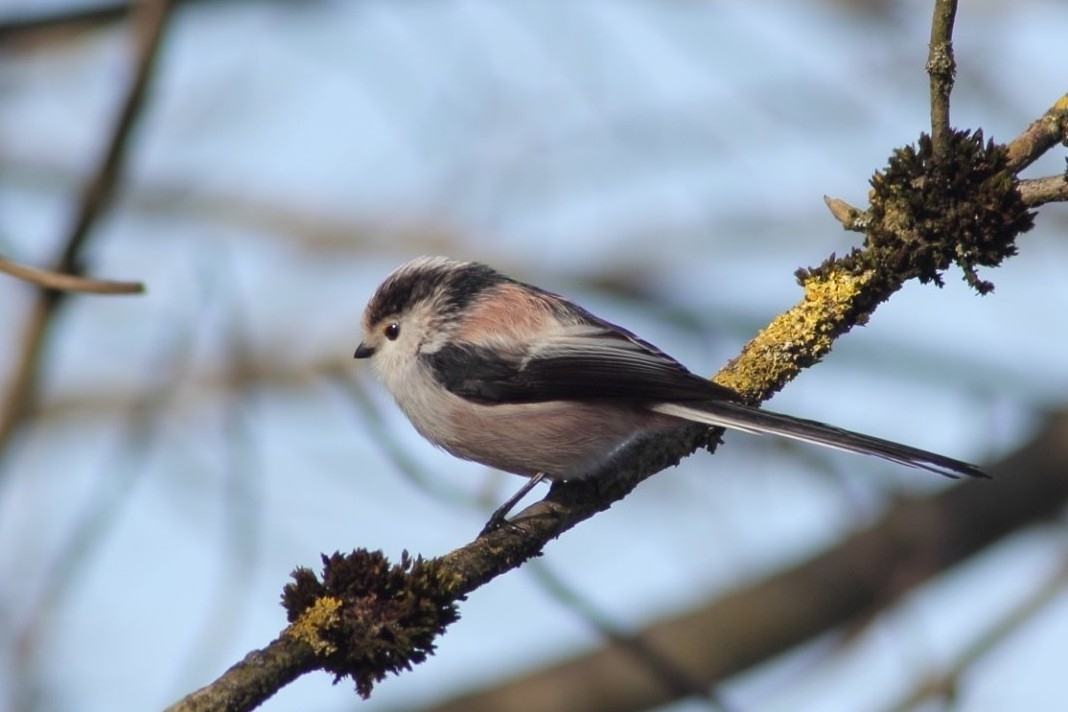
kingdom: Animalia
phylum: Chordata
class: Aves
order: Passeriformes
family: Aegithalidae
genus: Aegithalos
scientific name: Aegithalos caudatus
